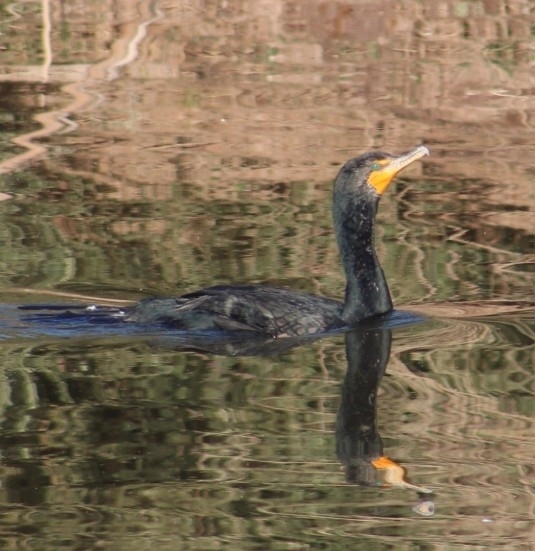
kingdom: Animalia
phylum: Chordata
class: Aves
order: Suliformes
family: Phalacrocoracidae
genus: Phalacrocorax
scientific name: Phalacrocorax auritus
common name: Double-crested cormorant
